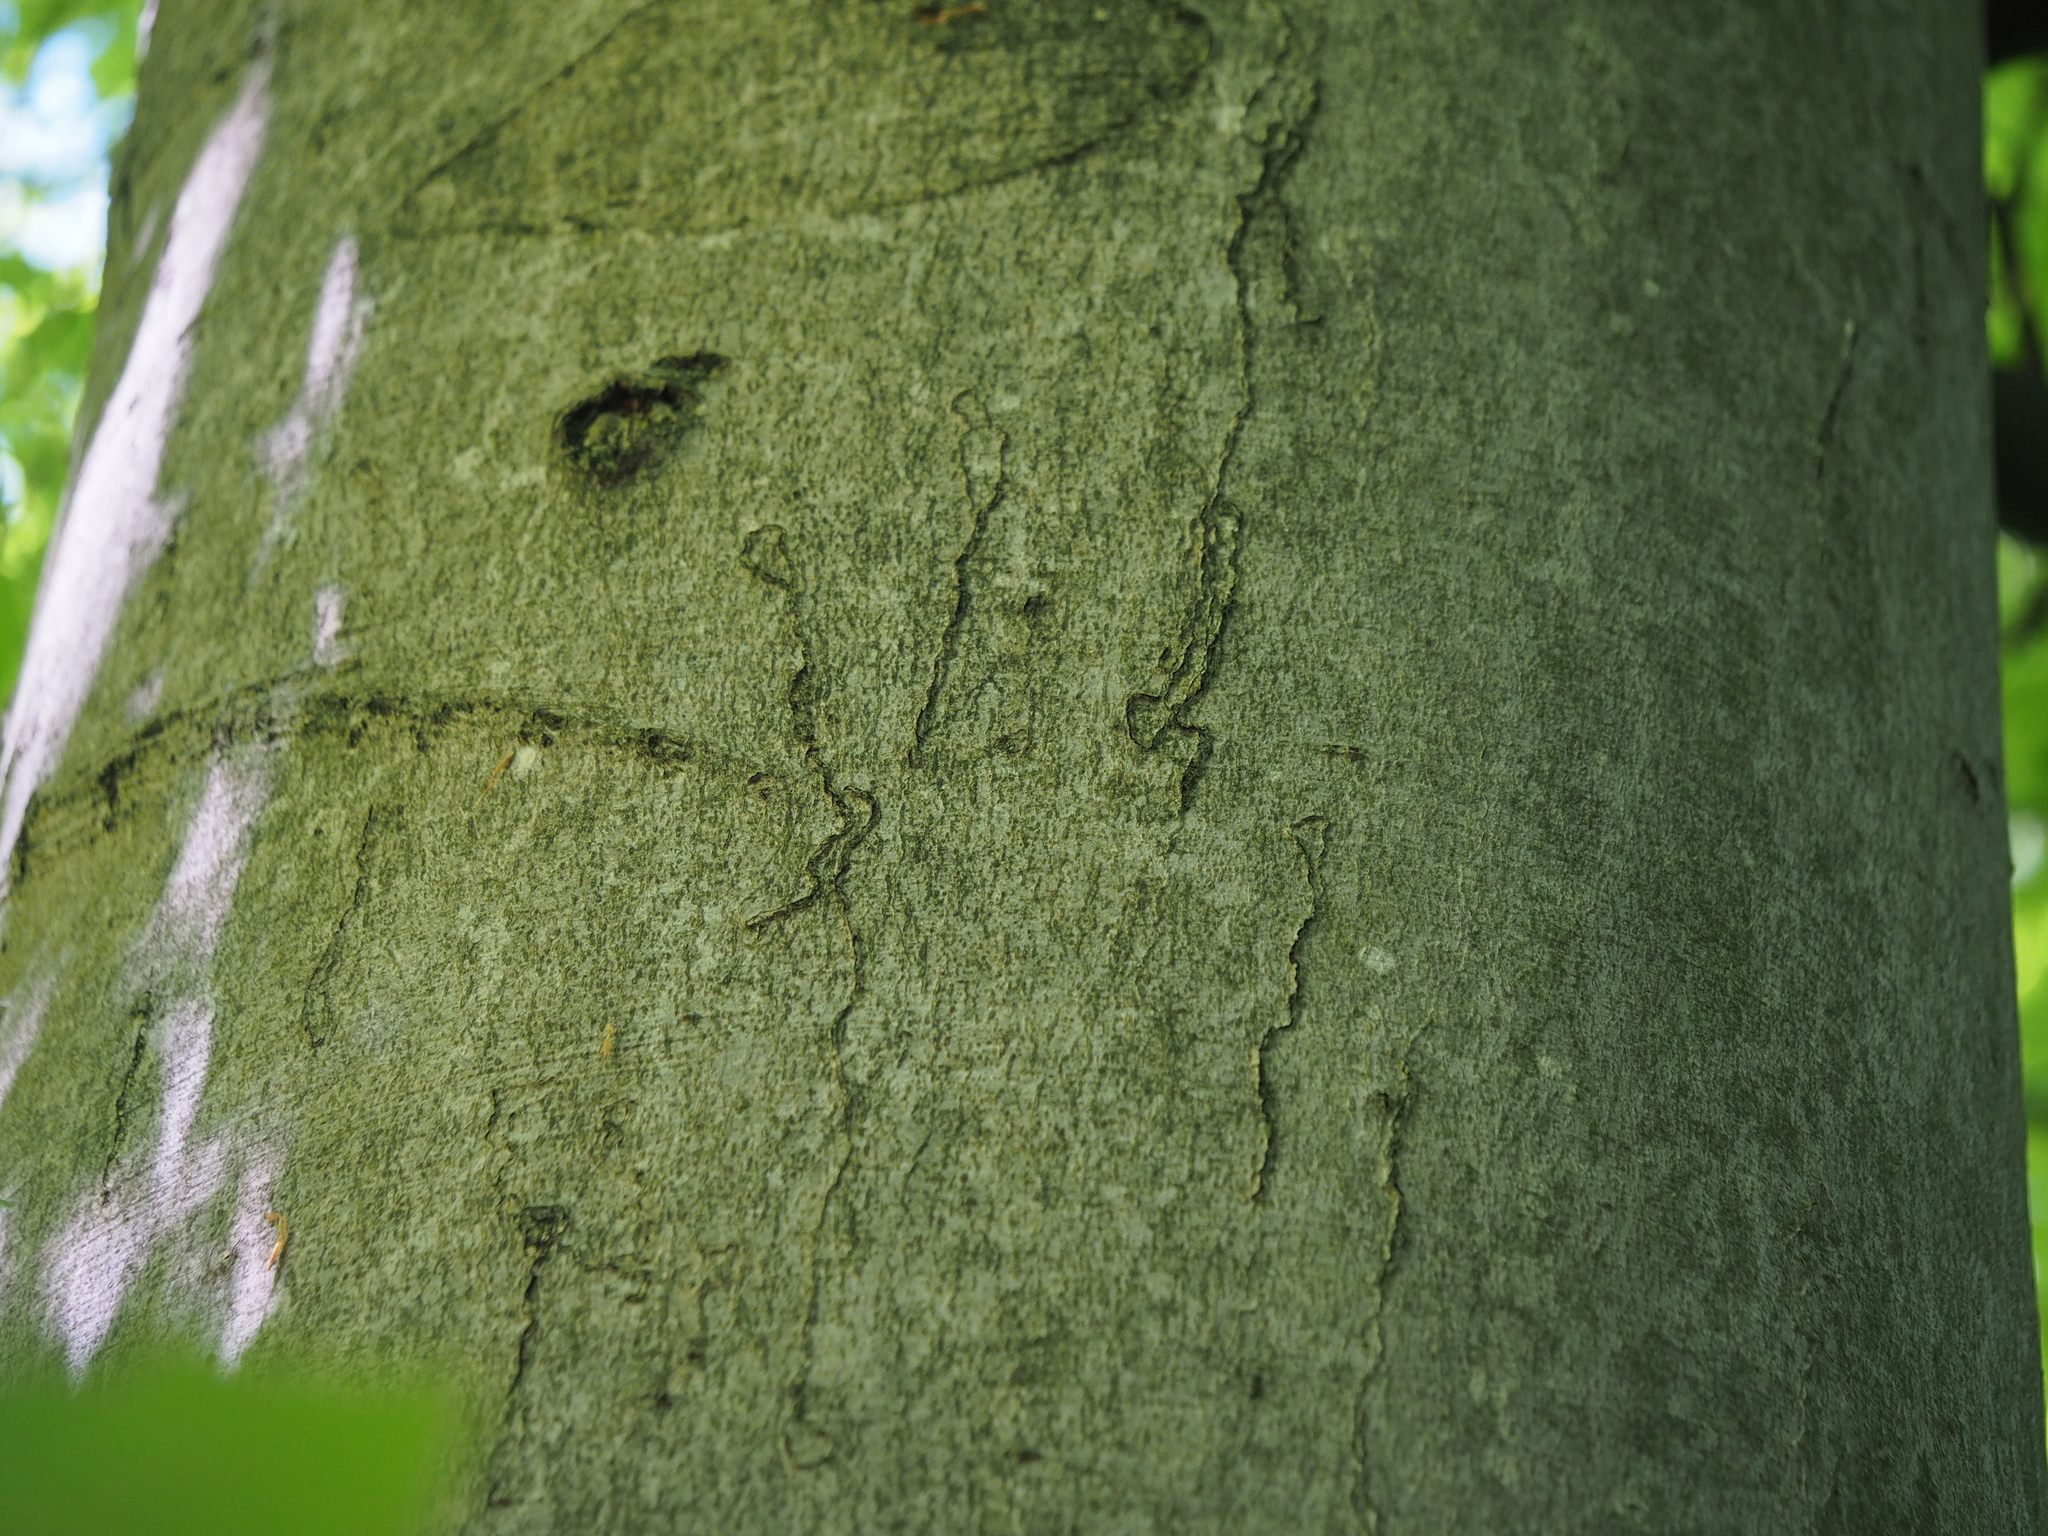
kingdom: Animalia
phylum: Arthropoda
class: Insecta
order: Lepidoptera
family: Nepticulidae
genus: Zimmermannia
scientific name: Zimmermannia liebwerdella
